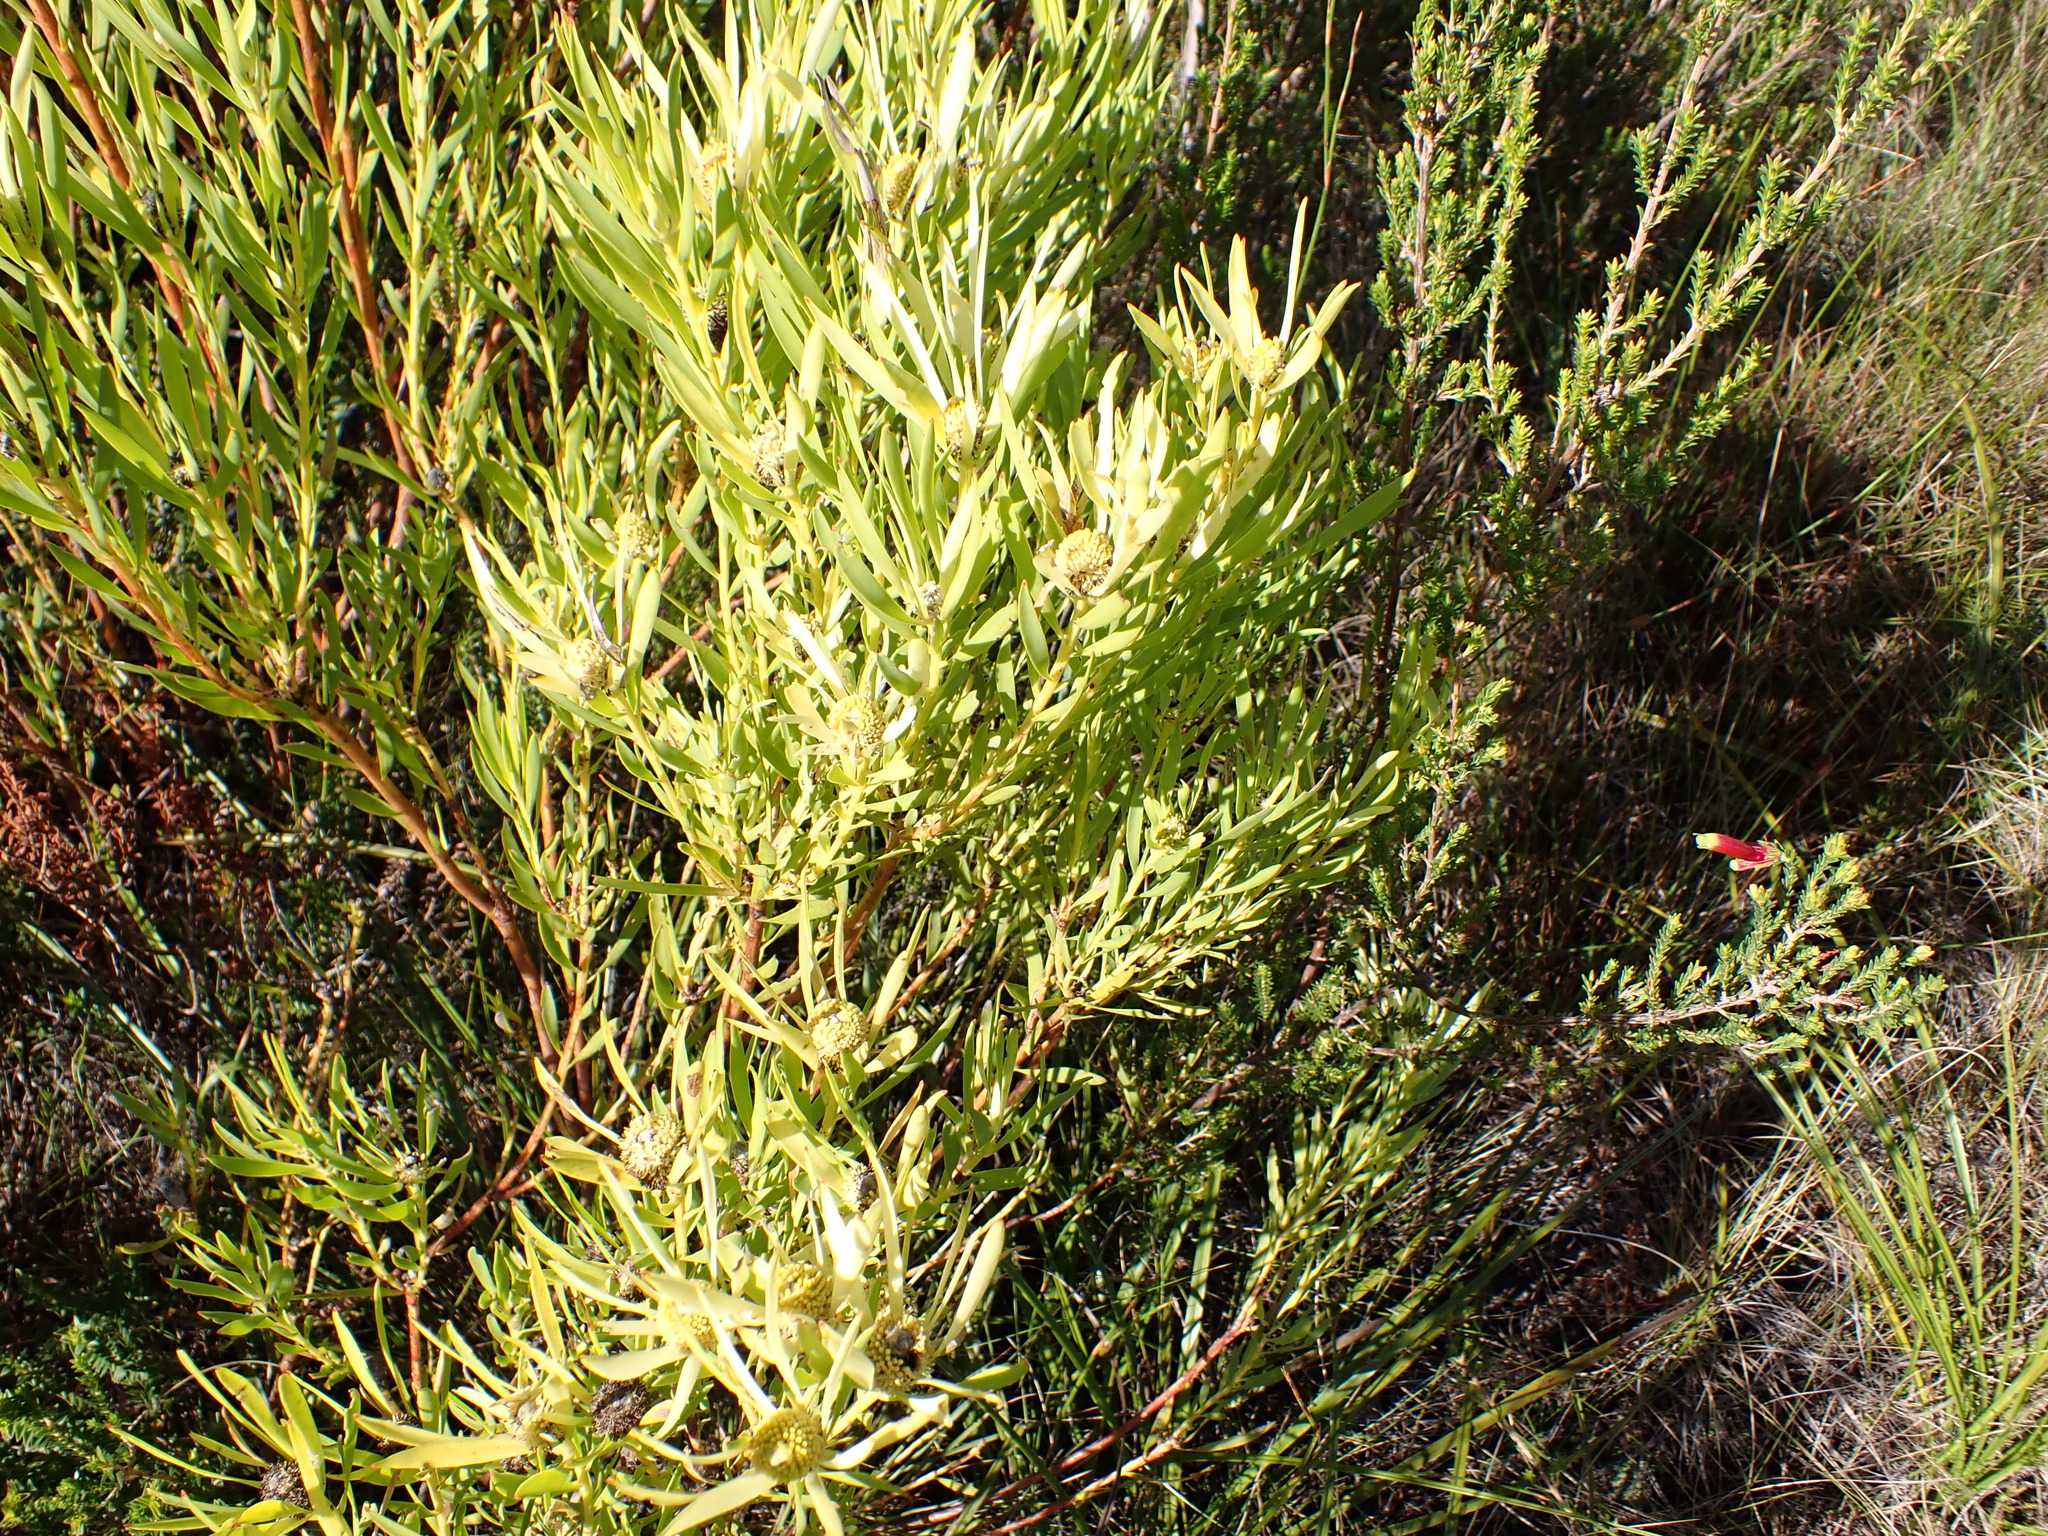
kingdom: Plantae
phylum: Tracheophyta
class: Magnoliopsida
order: Proteales
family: Proteaceae
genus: Leucadendron
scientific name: Leucadendron salignum
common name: Common sunshine conebush
